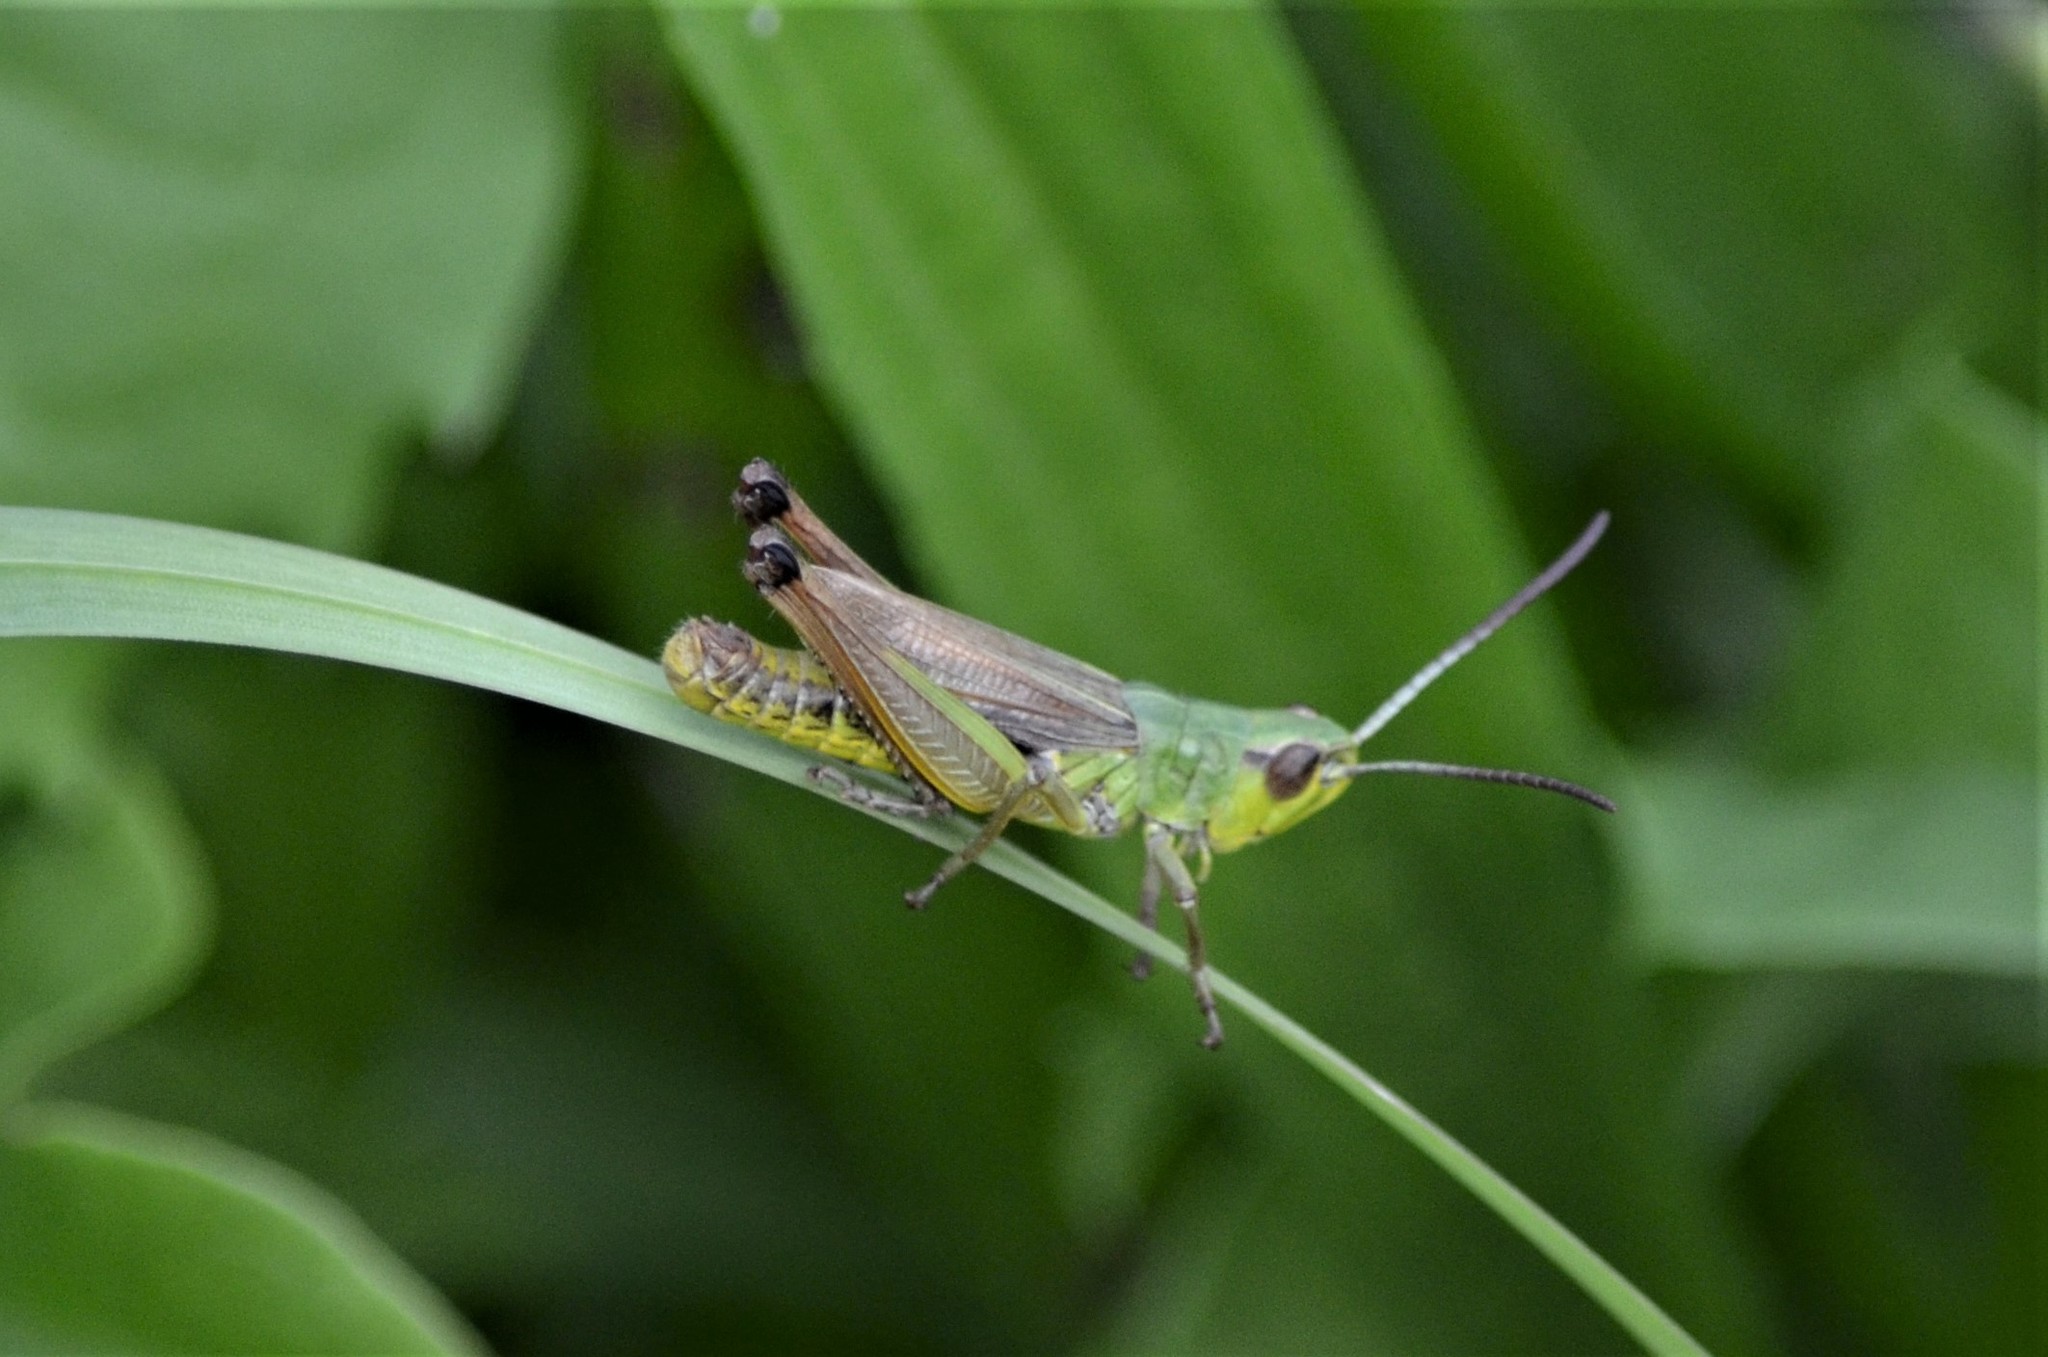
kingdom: Animalia
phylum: Arthropoda
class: Insecta
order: Orthoptera
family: Acrididae
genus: Pseudochorthippus
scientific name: Pseudochorthippus parallelus
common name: Meadow grasshopper
